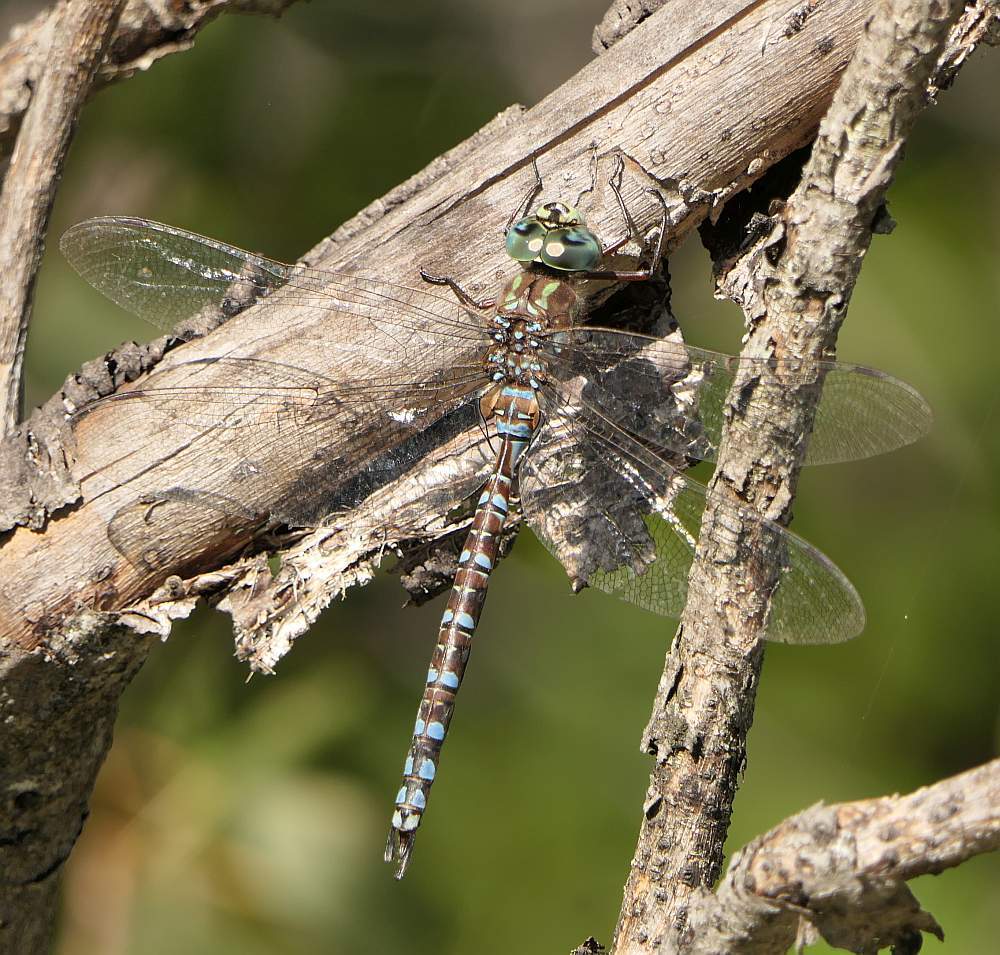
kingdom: Animalia
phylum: Arthropoda
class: Insecta
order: Odonata
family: Aeshnidae
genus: Aeshna
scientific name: Aeshna canadensis
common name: Canada darner
